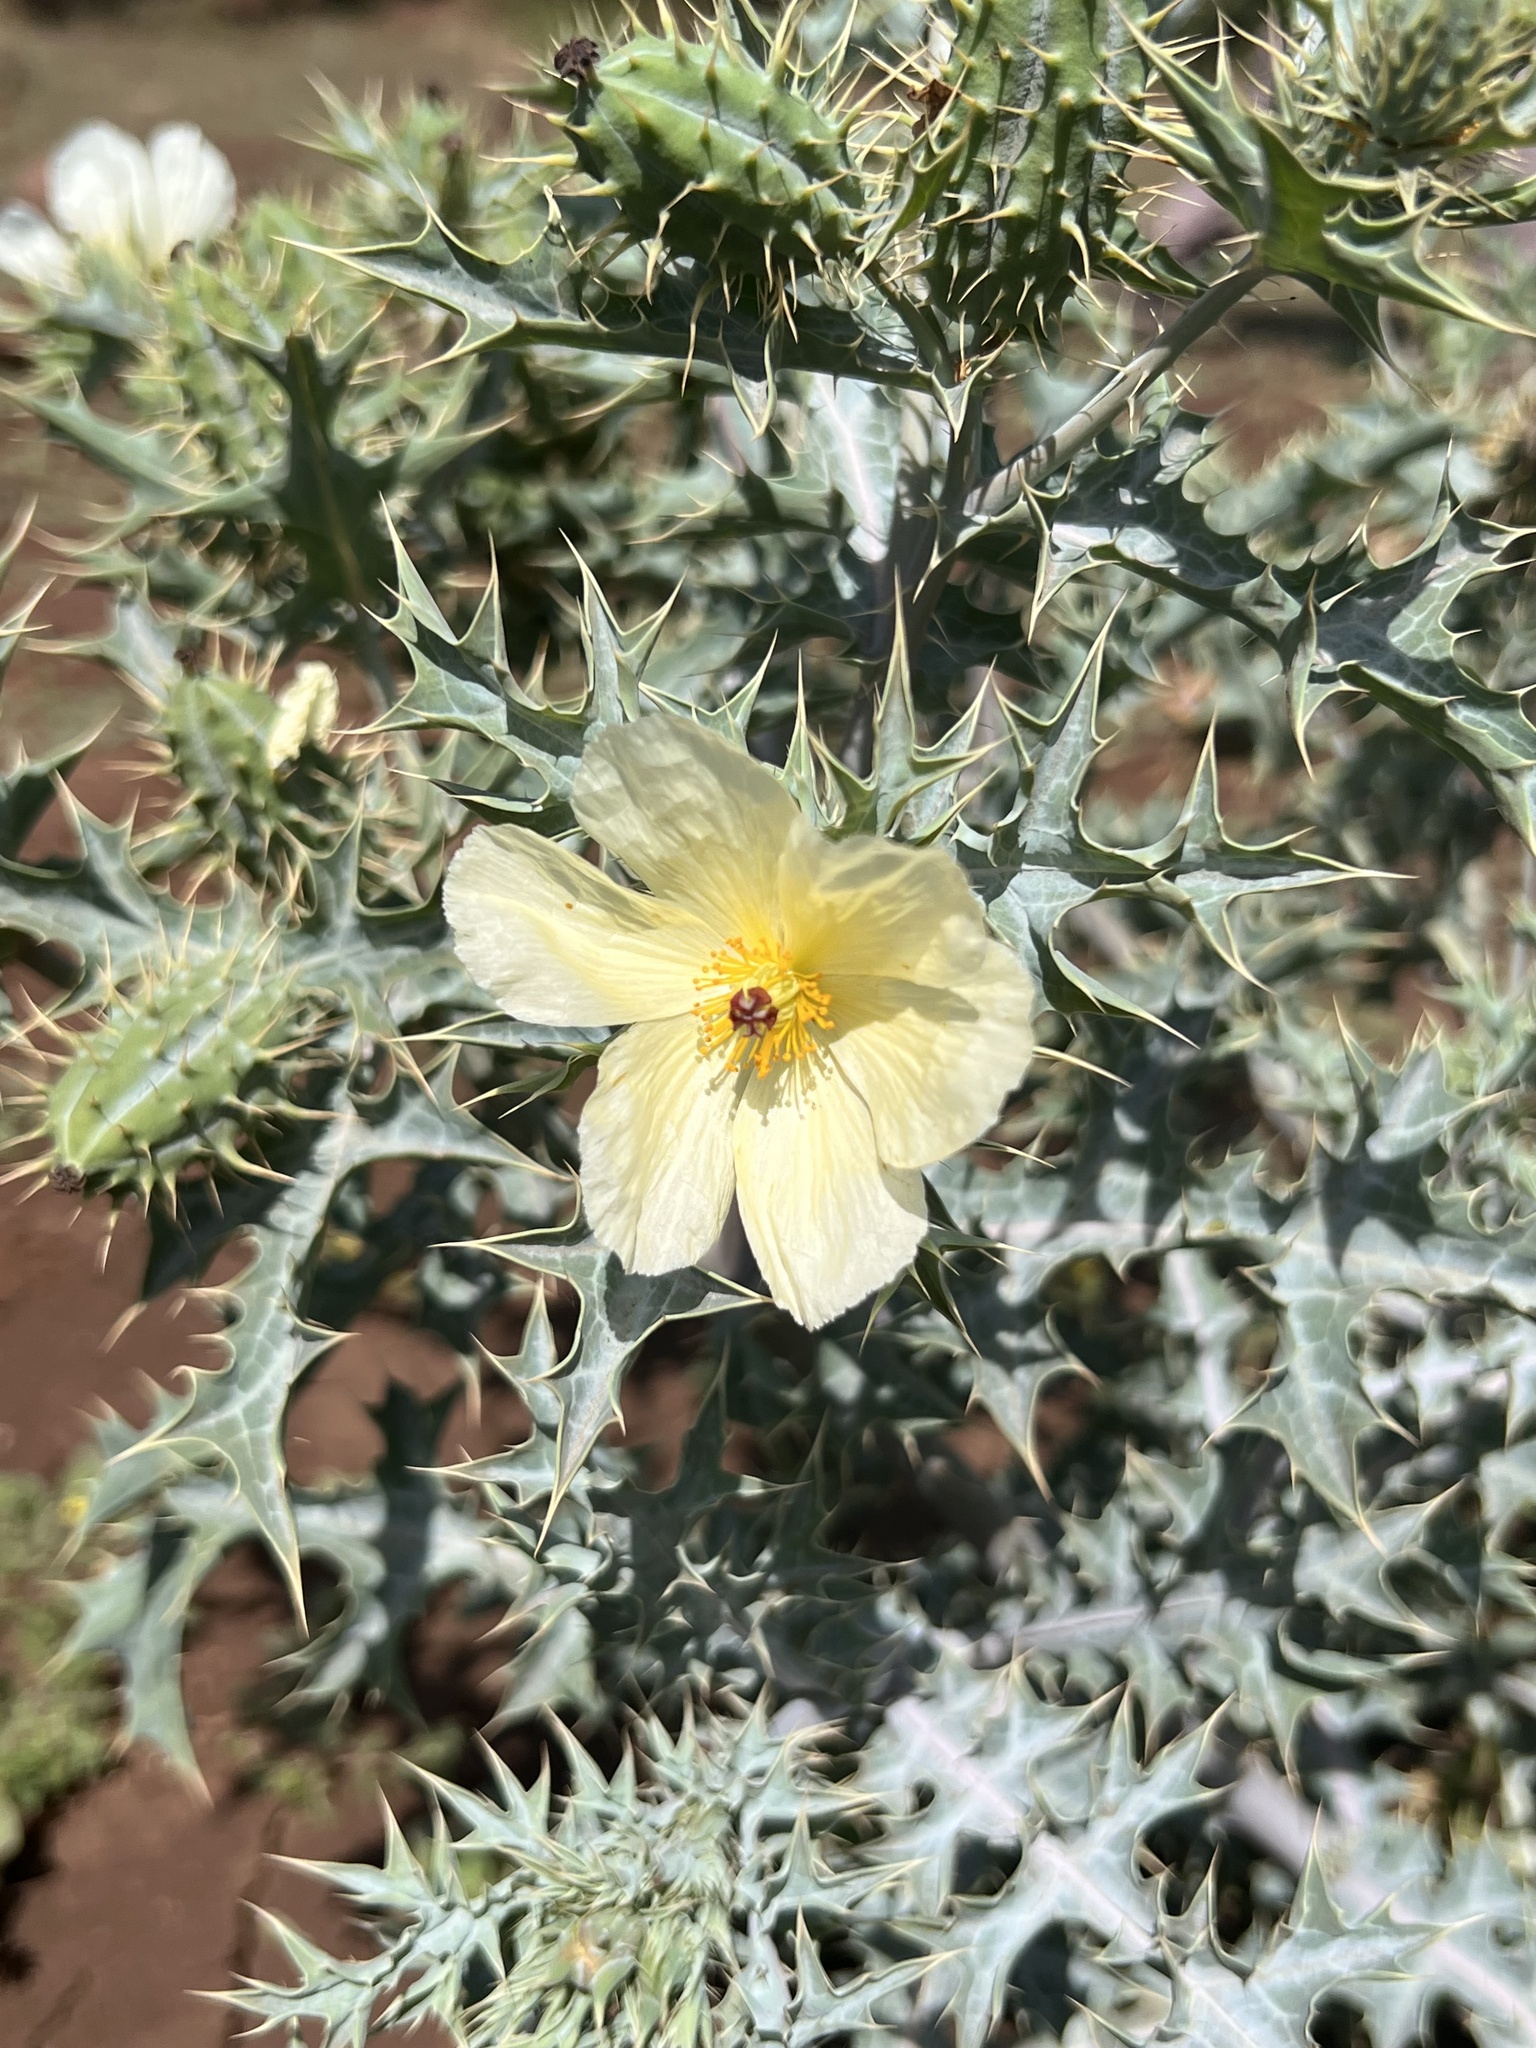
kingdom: Plantae
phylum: Tracheophyta
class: Magnoliopsida
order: Ranunculales
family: Papaveraceae
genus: Argemone
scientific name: Argemone ochroleuca
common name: White-flower mexican-poppy
